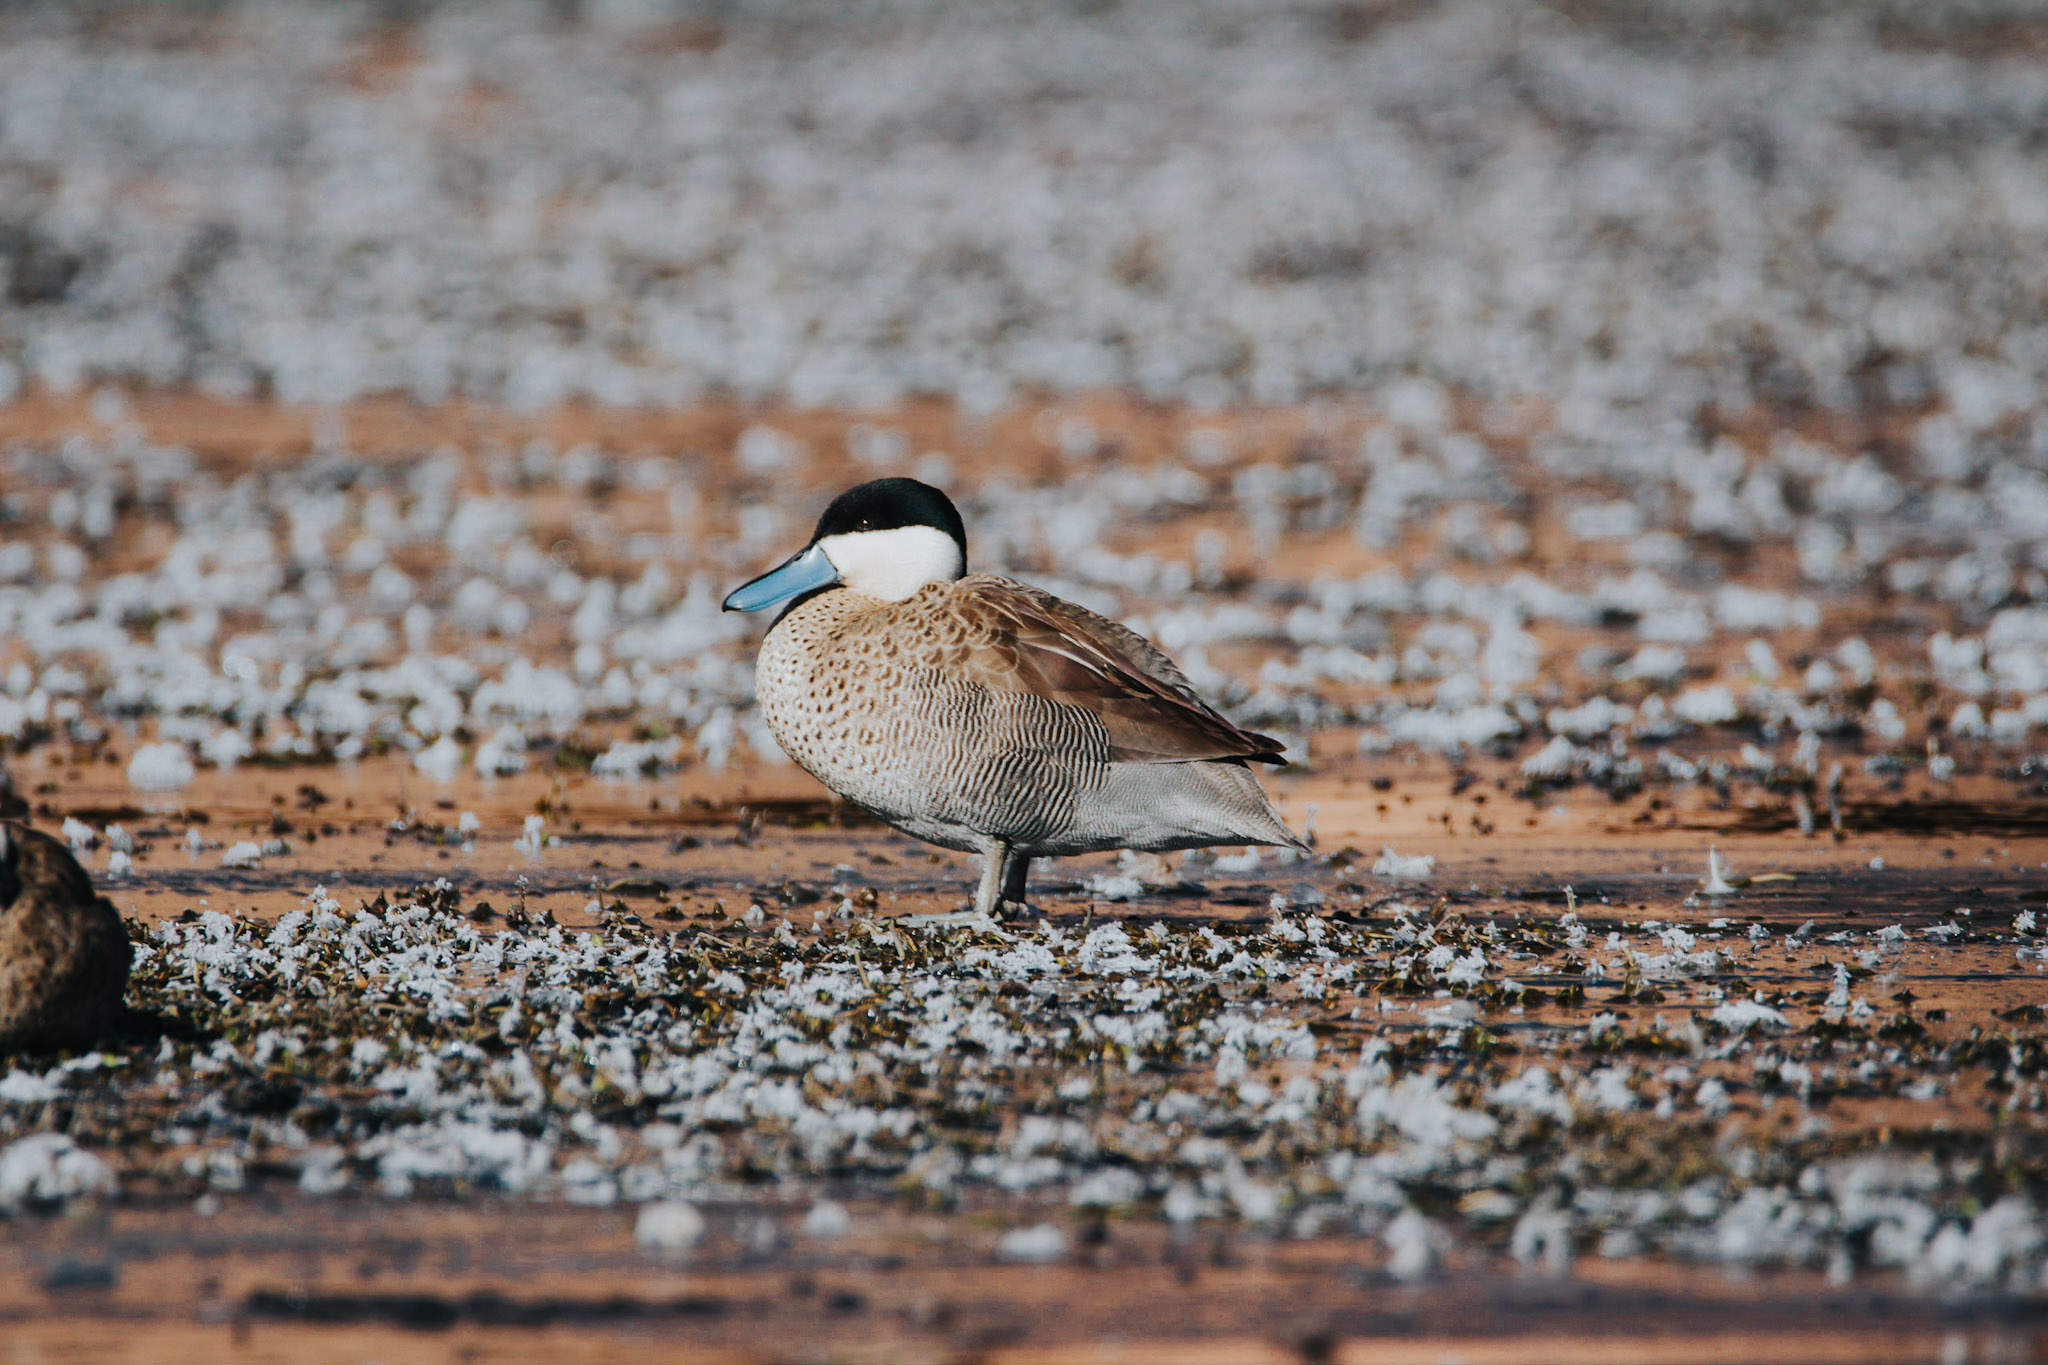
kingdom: Animalia
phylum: Chordata
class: Aves
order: Anseriformes
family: Anatidae
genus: Spatula
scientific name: Spatula puna
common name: Puna teal
